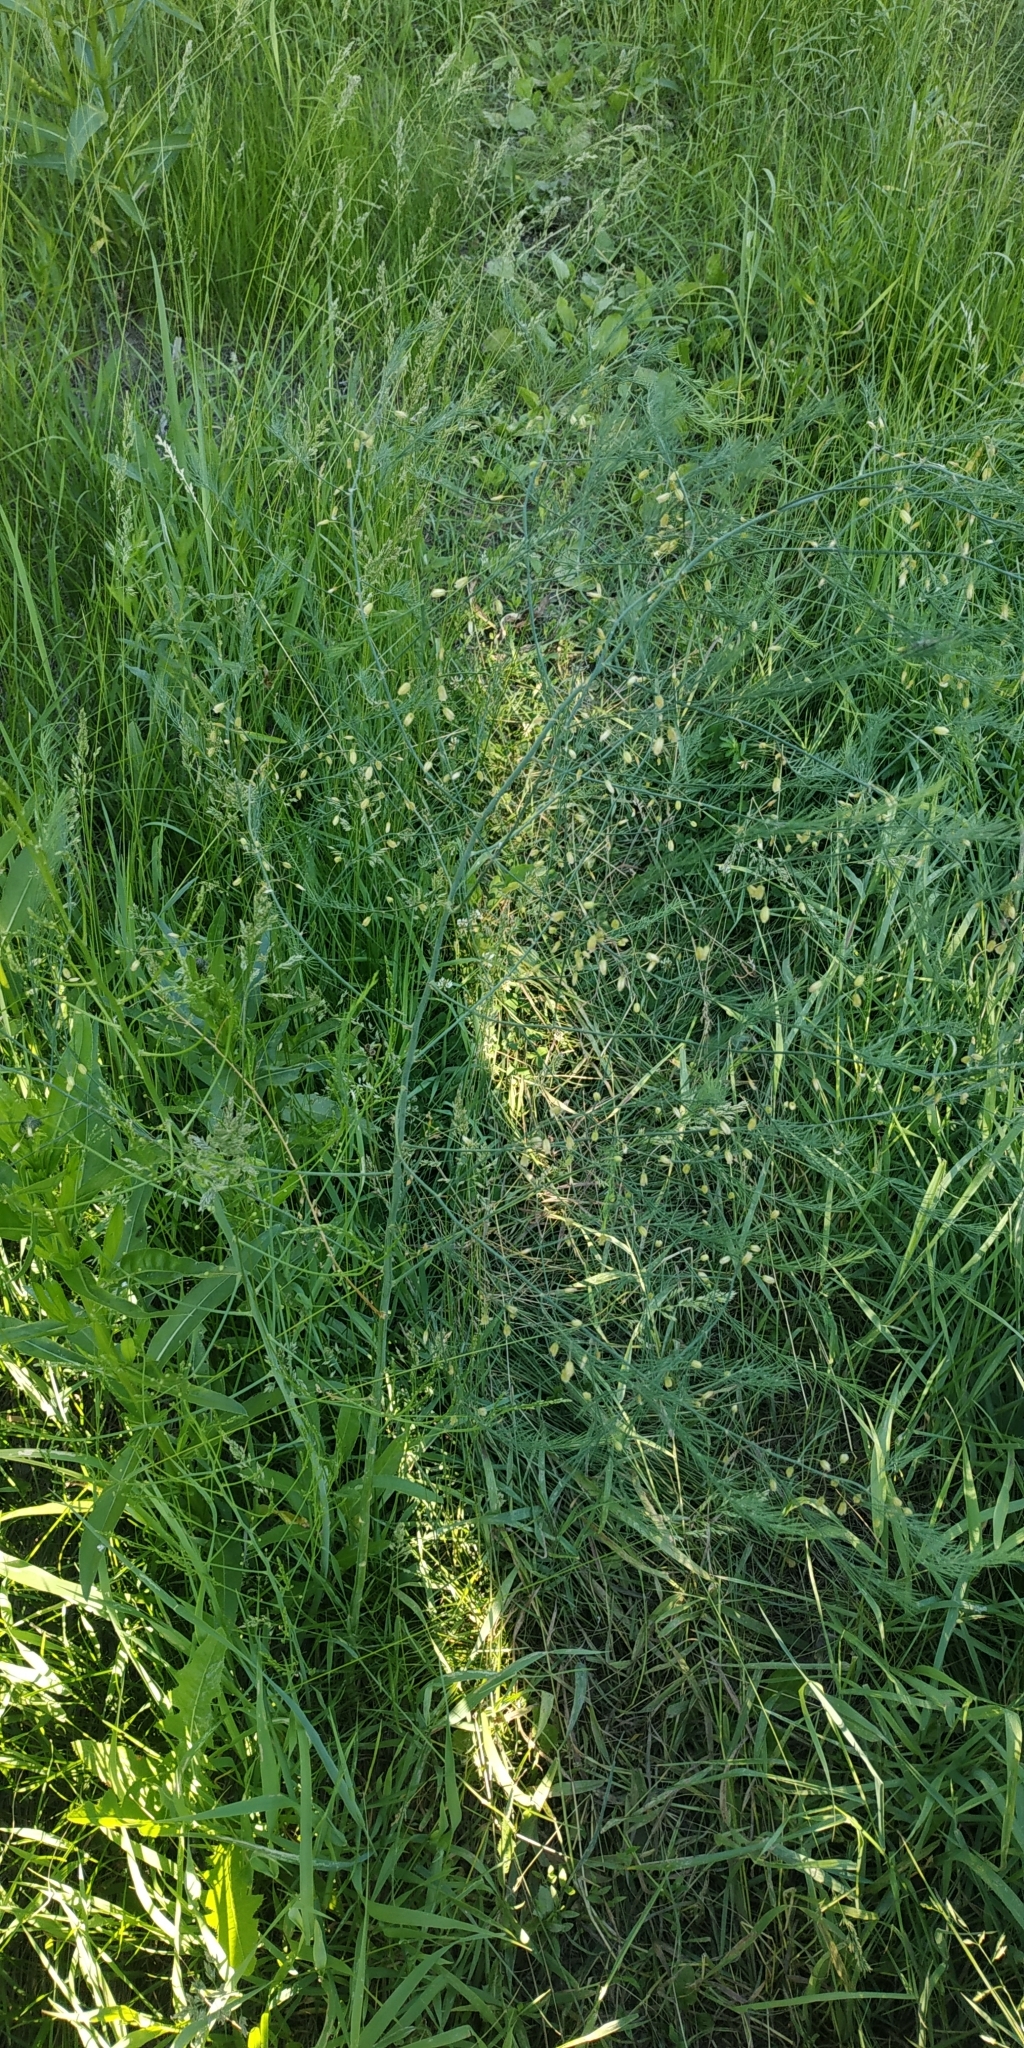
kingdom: Plantae
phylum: Tracheophyta
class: Liliopsida
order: Asparagales
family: Asparagaceae
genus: Asparagus
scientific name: Asparagus officinalis
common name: Garden asparagus
